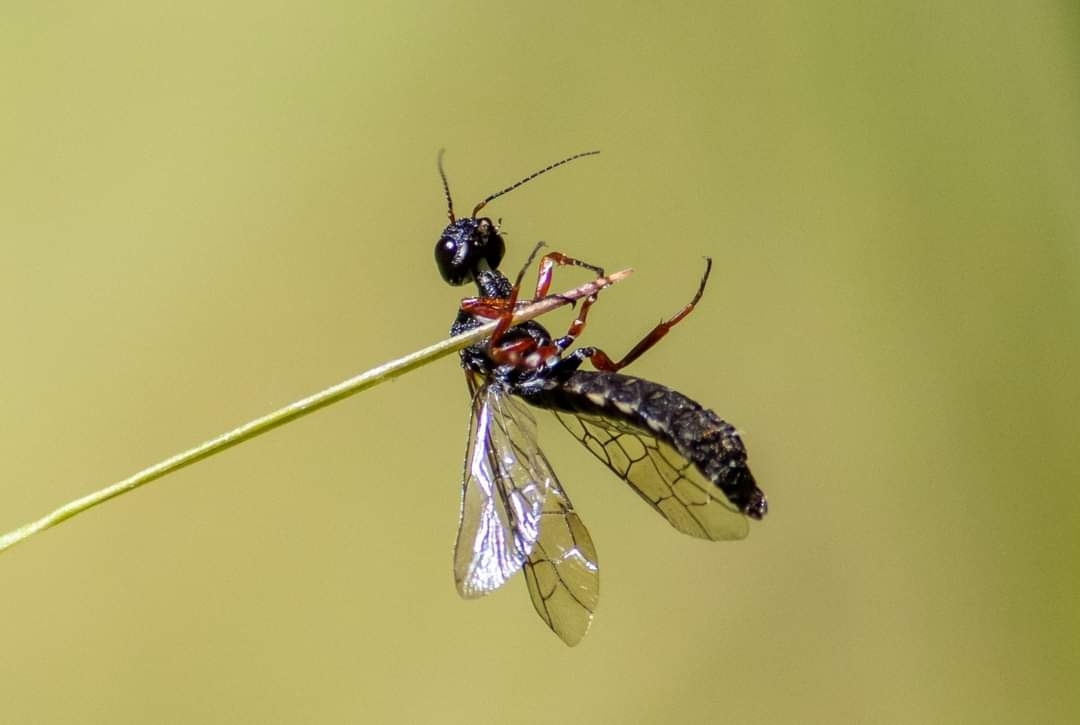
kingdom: Animalia
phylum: Arthropoda
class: Insecta
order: Hymenoptera
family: Xiphydriidae
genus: Xiphydria
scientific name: Xiphydria camelus
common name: Alder wood-wasp
